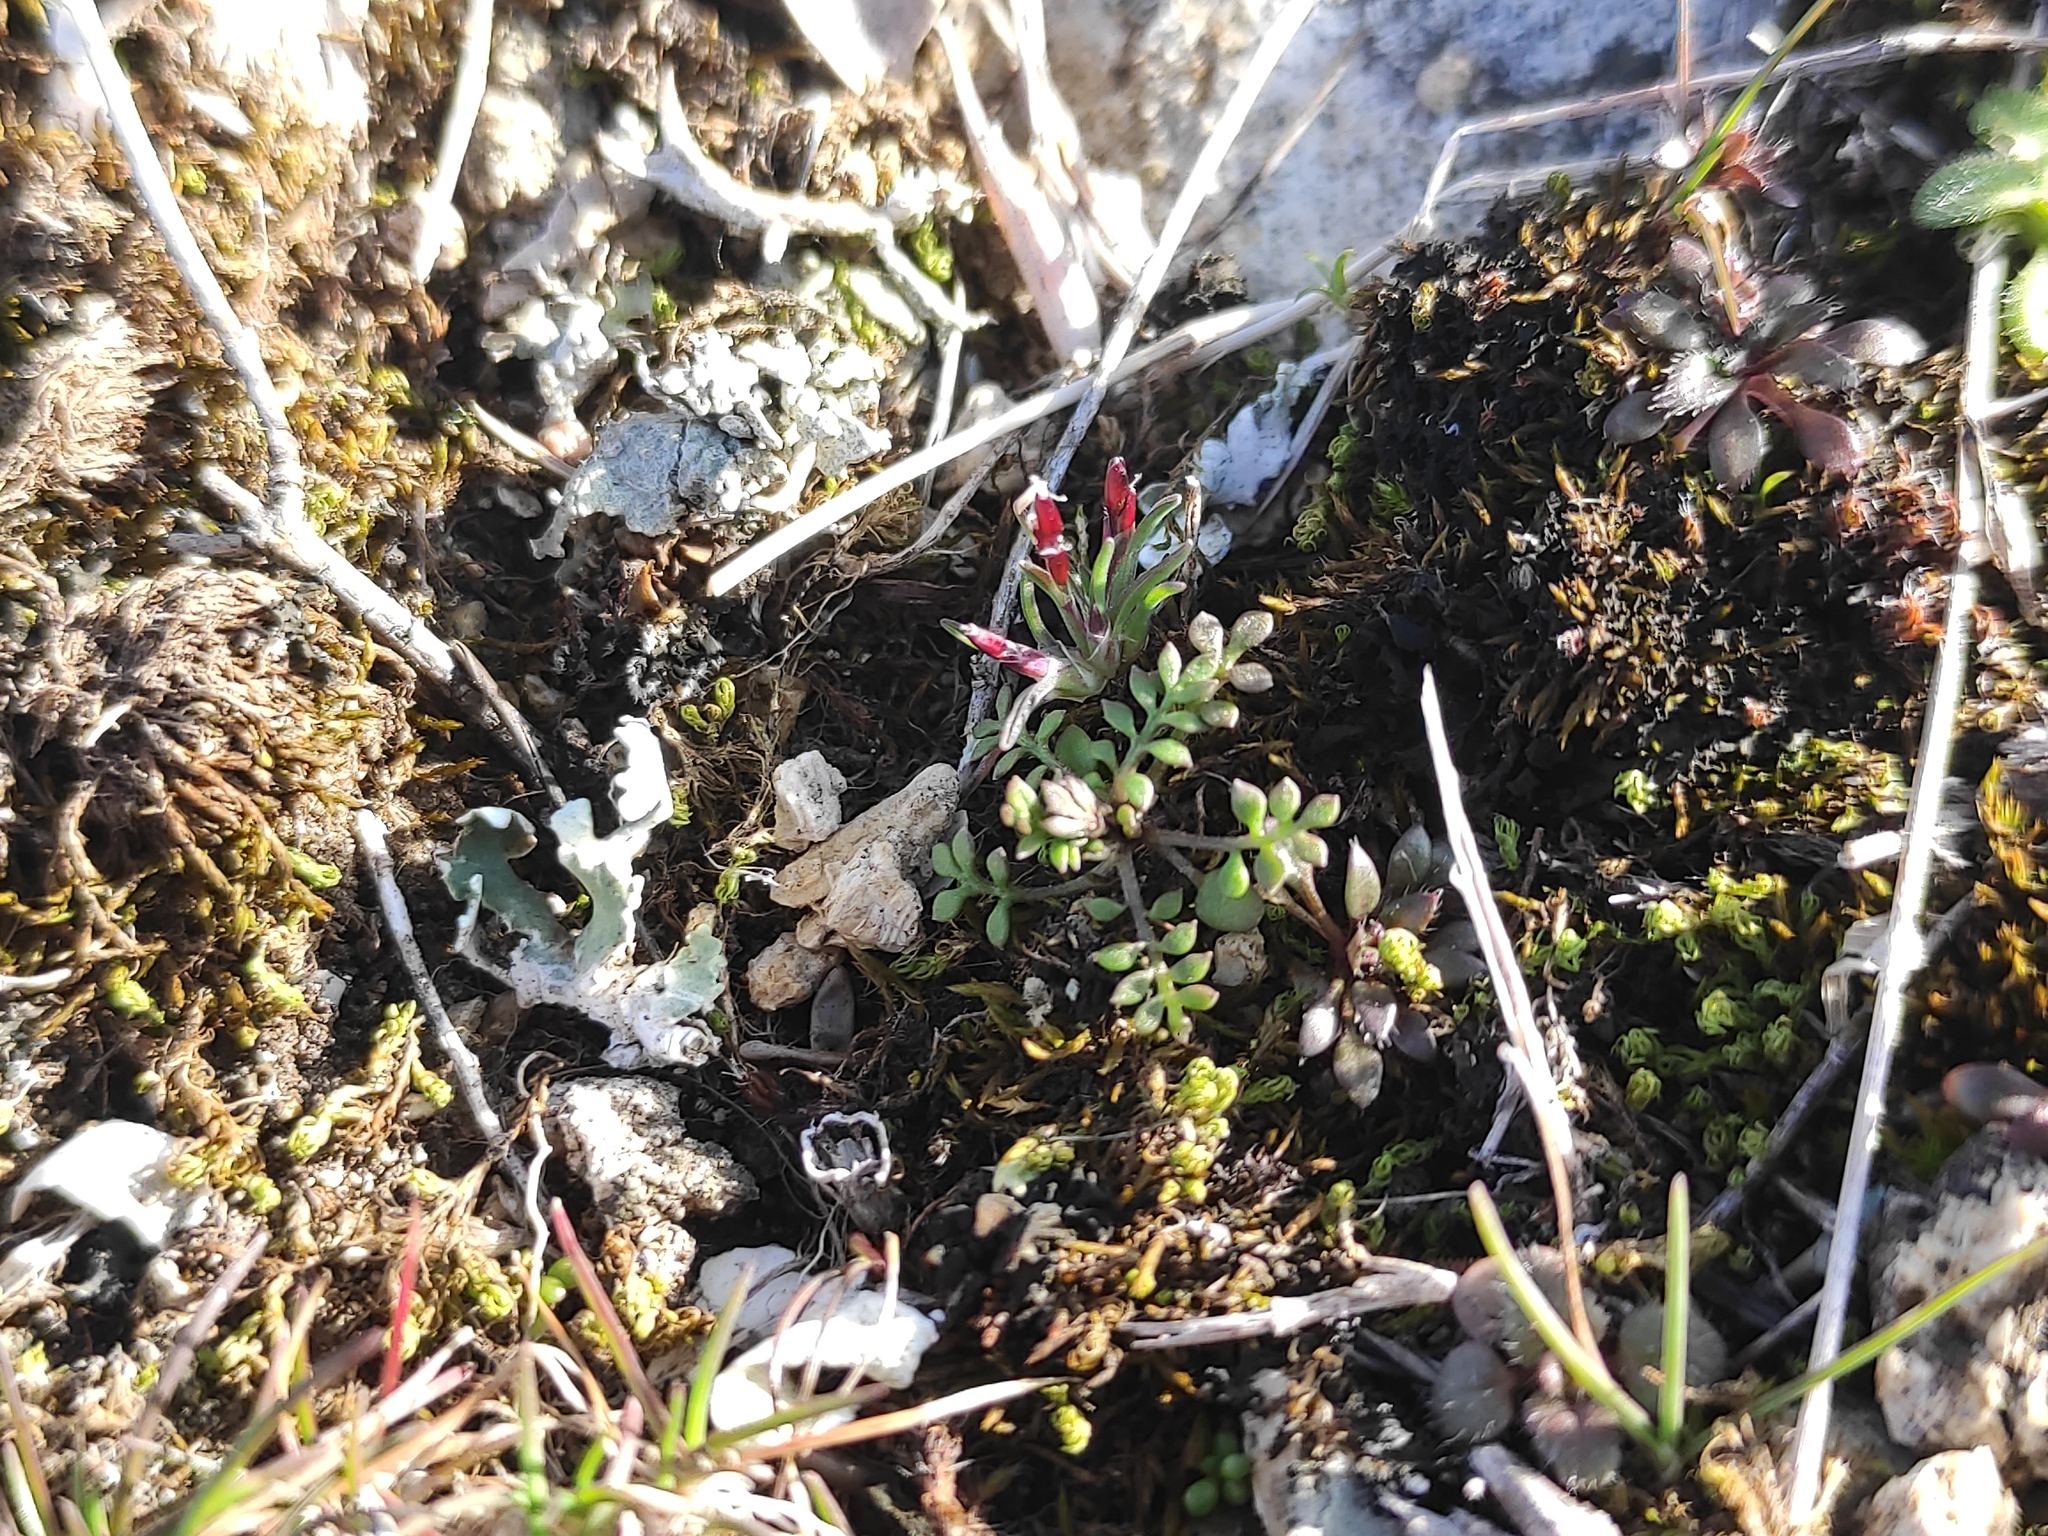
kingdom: Plantae
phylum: Tracheophyta
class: Magnoliopsida
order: Brassicales
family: Brassicaceae
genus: Hornungia
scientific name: Hornungia petraea
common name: Hutchinsia
